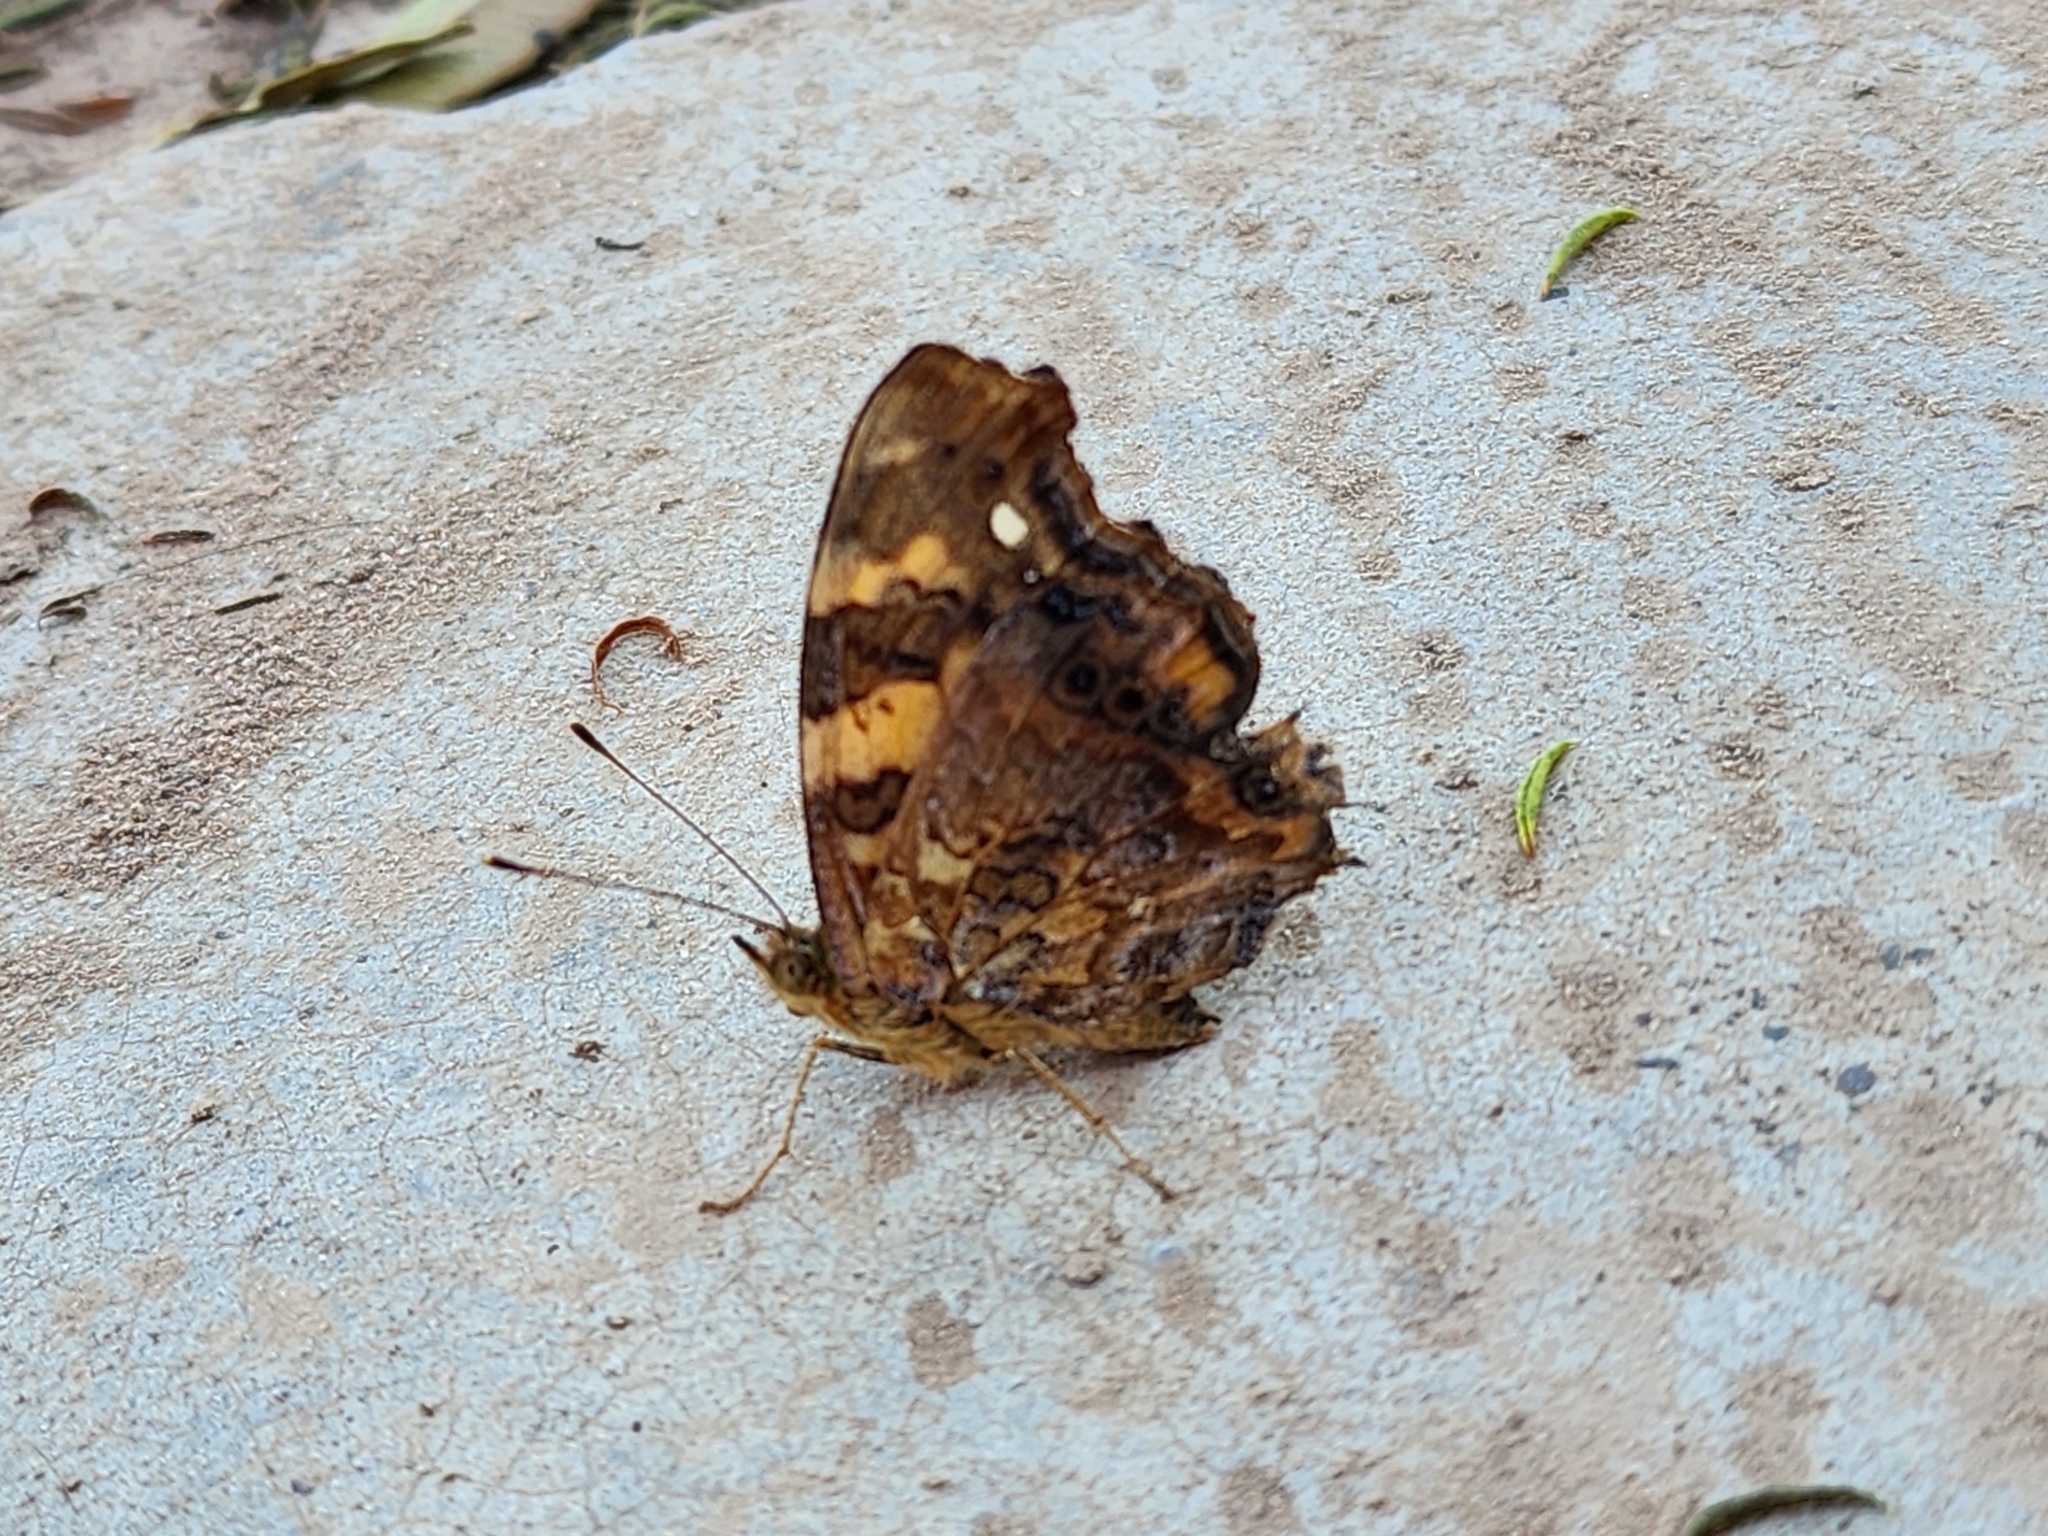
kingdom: Animalia
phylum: Arthropoda
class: Insecta
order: Lepidoptera
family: Nymphalidae
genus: Hypanartia
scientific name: Hypanartia bella
